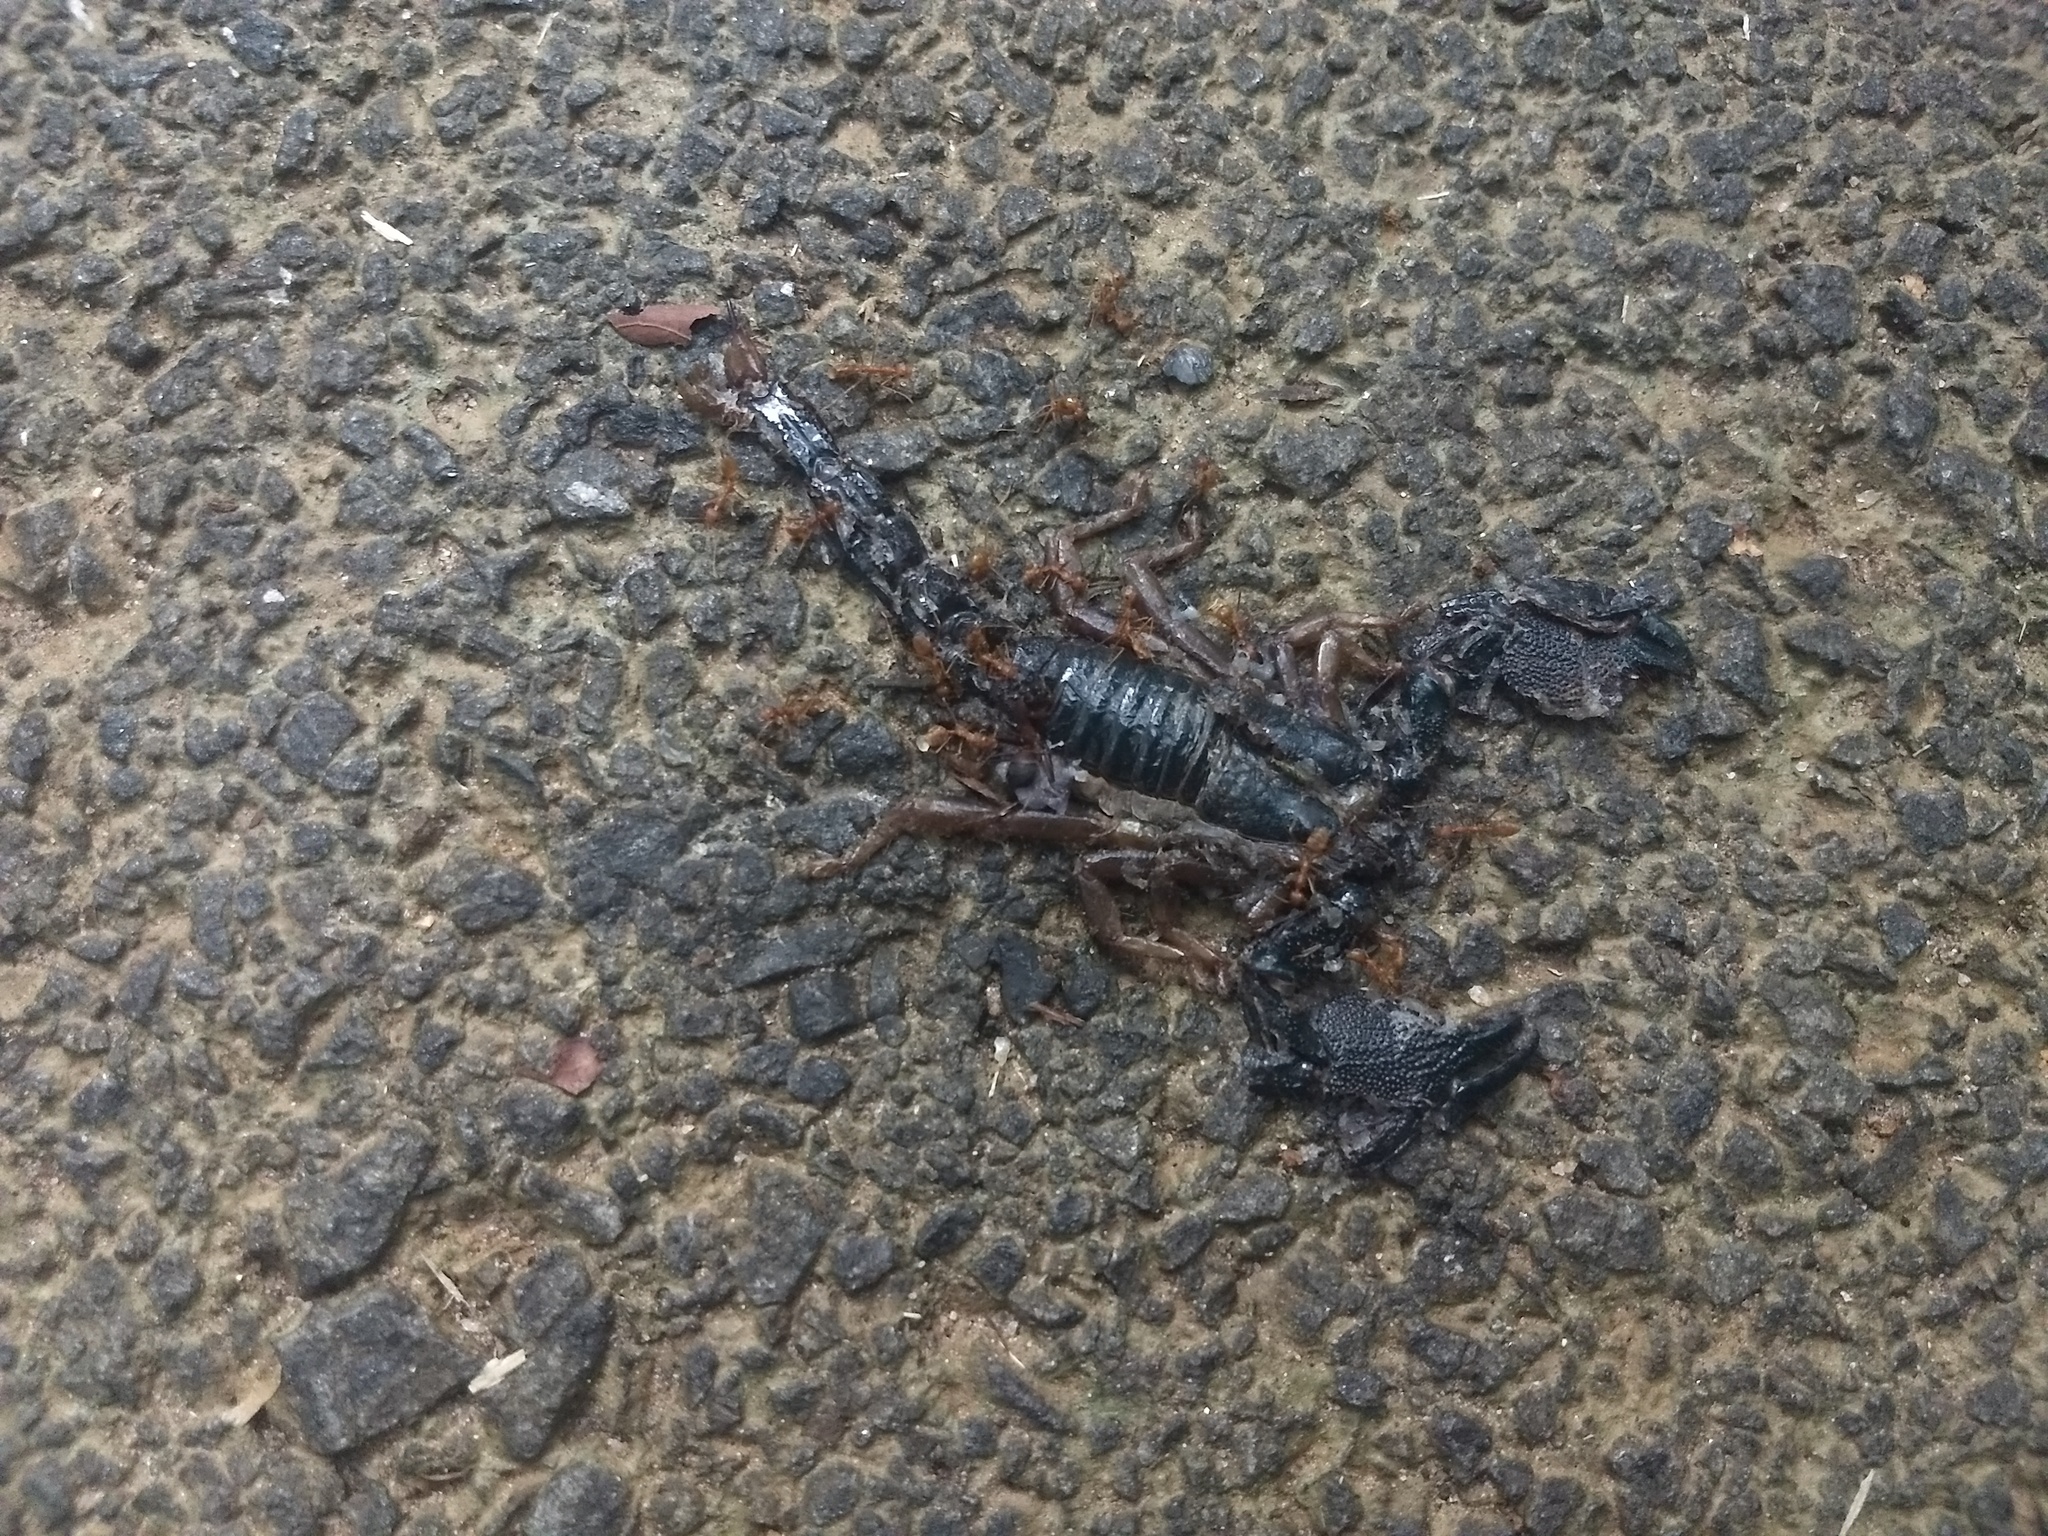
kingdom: Animalia
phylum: Arthropoda
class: Arachnida
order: Scorpiones
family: Scorpionidae
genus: Chersonesometrus
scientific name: Chersonesometrus fulvipes
